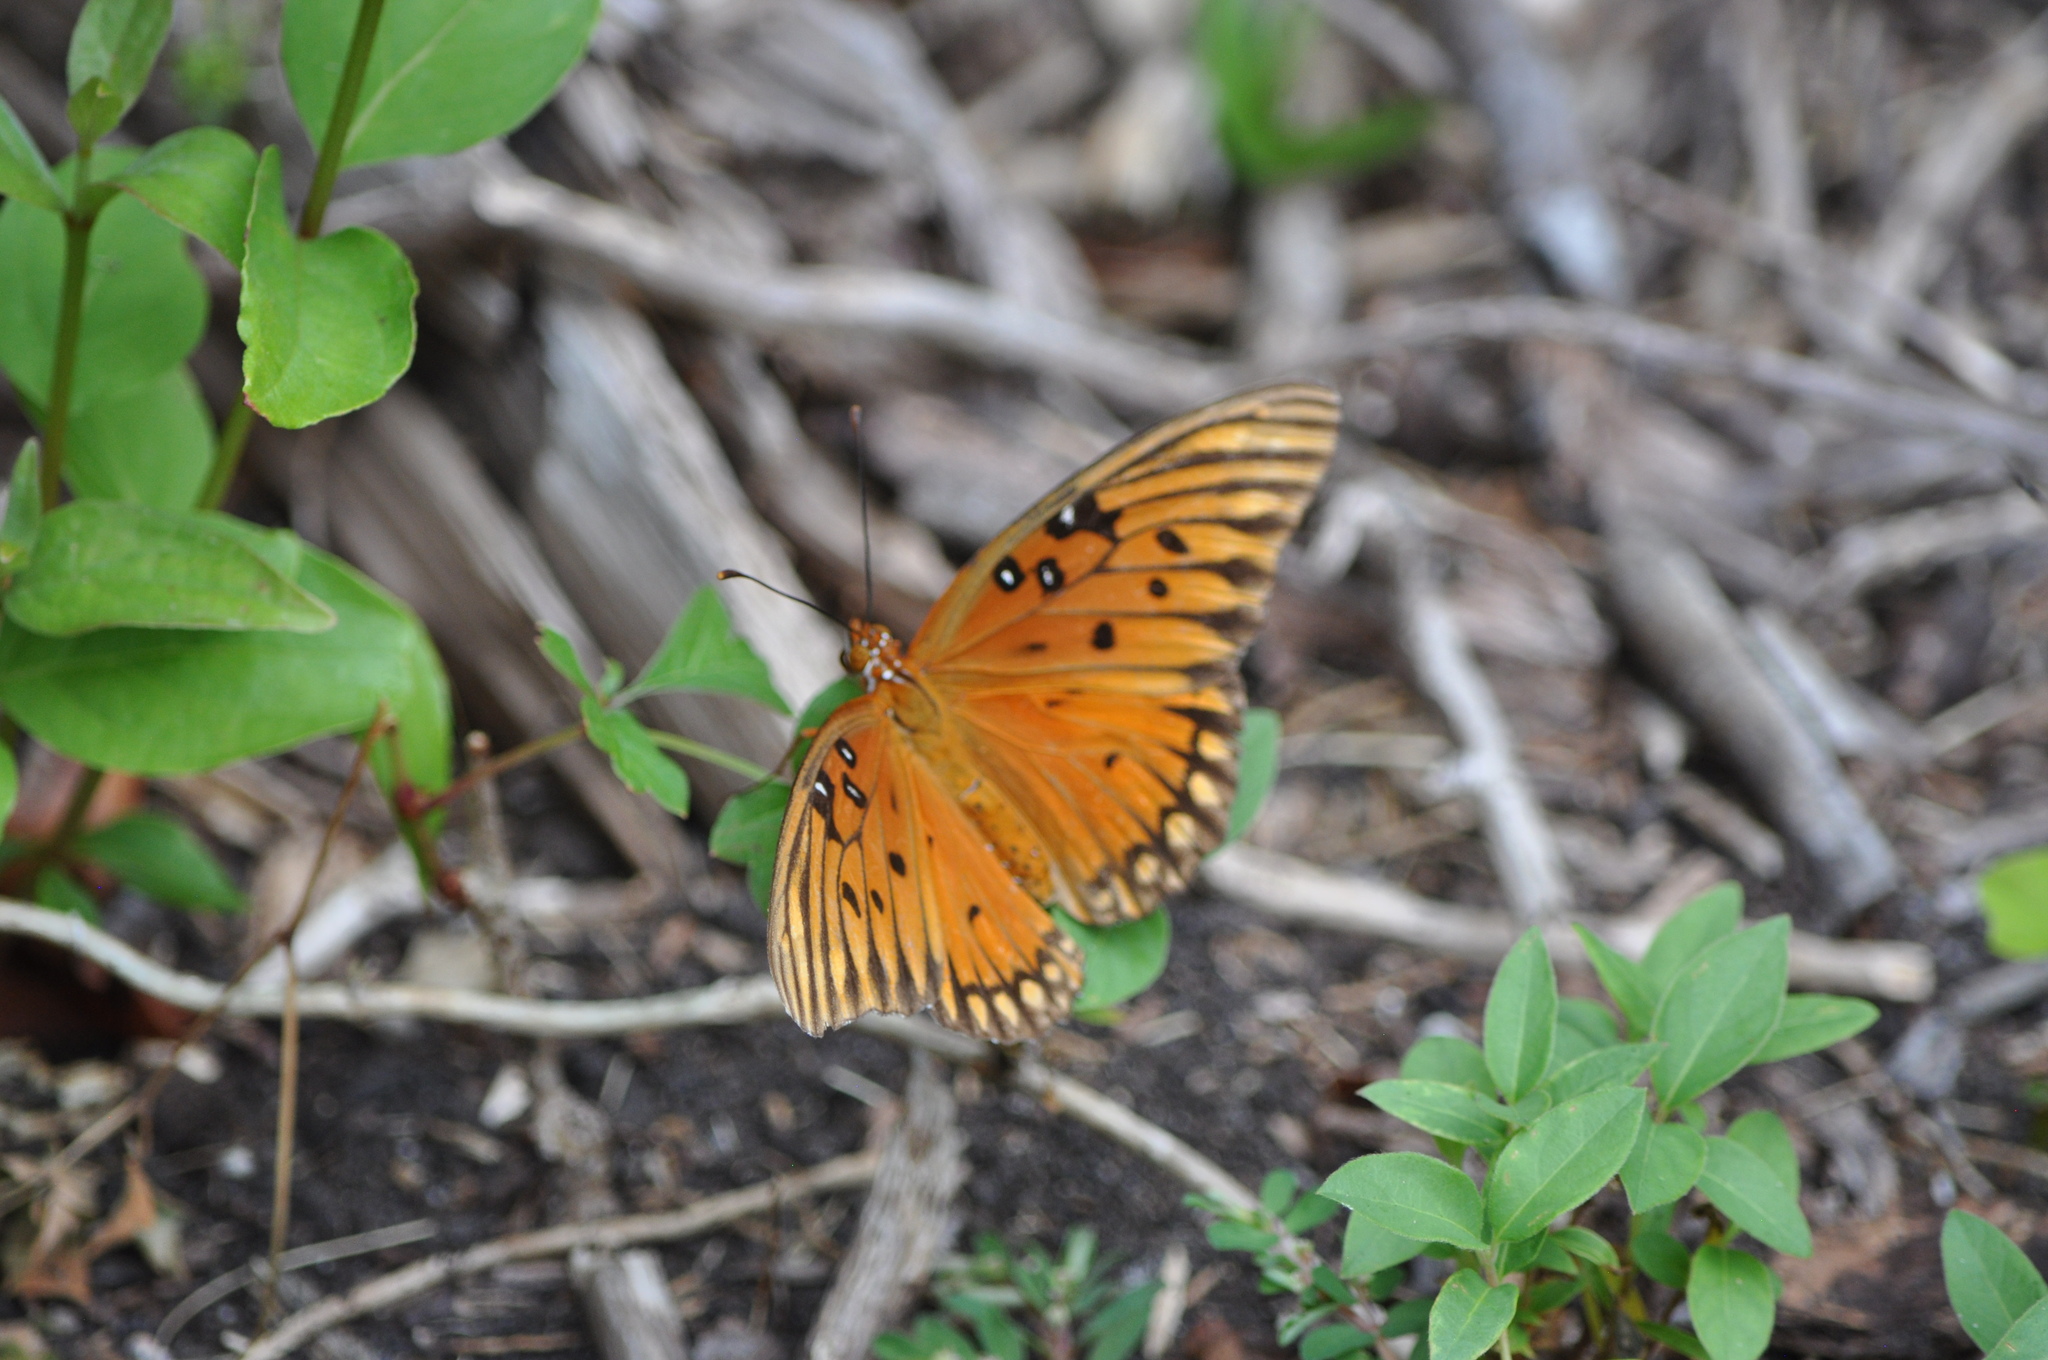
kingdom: Animalia
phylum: Arthropoda
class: Insecta
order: Lepidoptera
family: Nymphalidae
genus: Dione
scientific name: Dione vanillae
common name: Gulf fritillary
